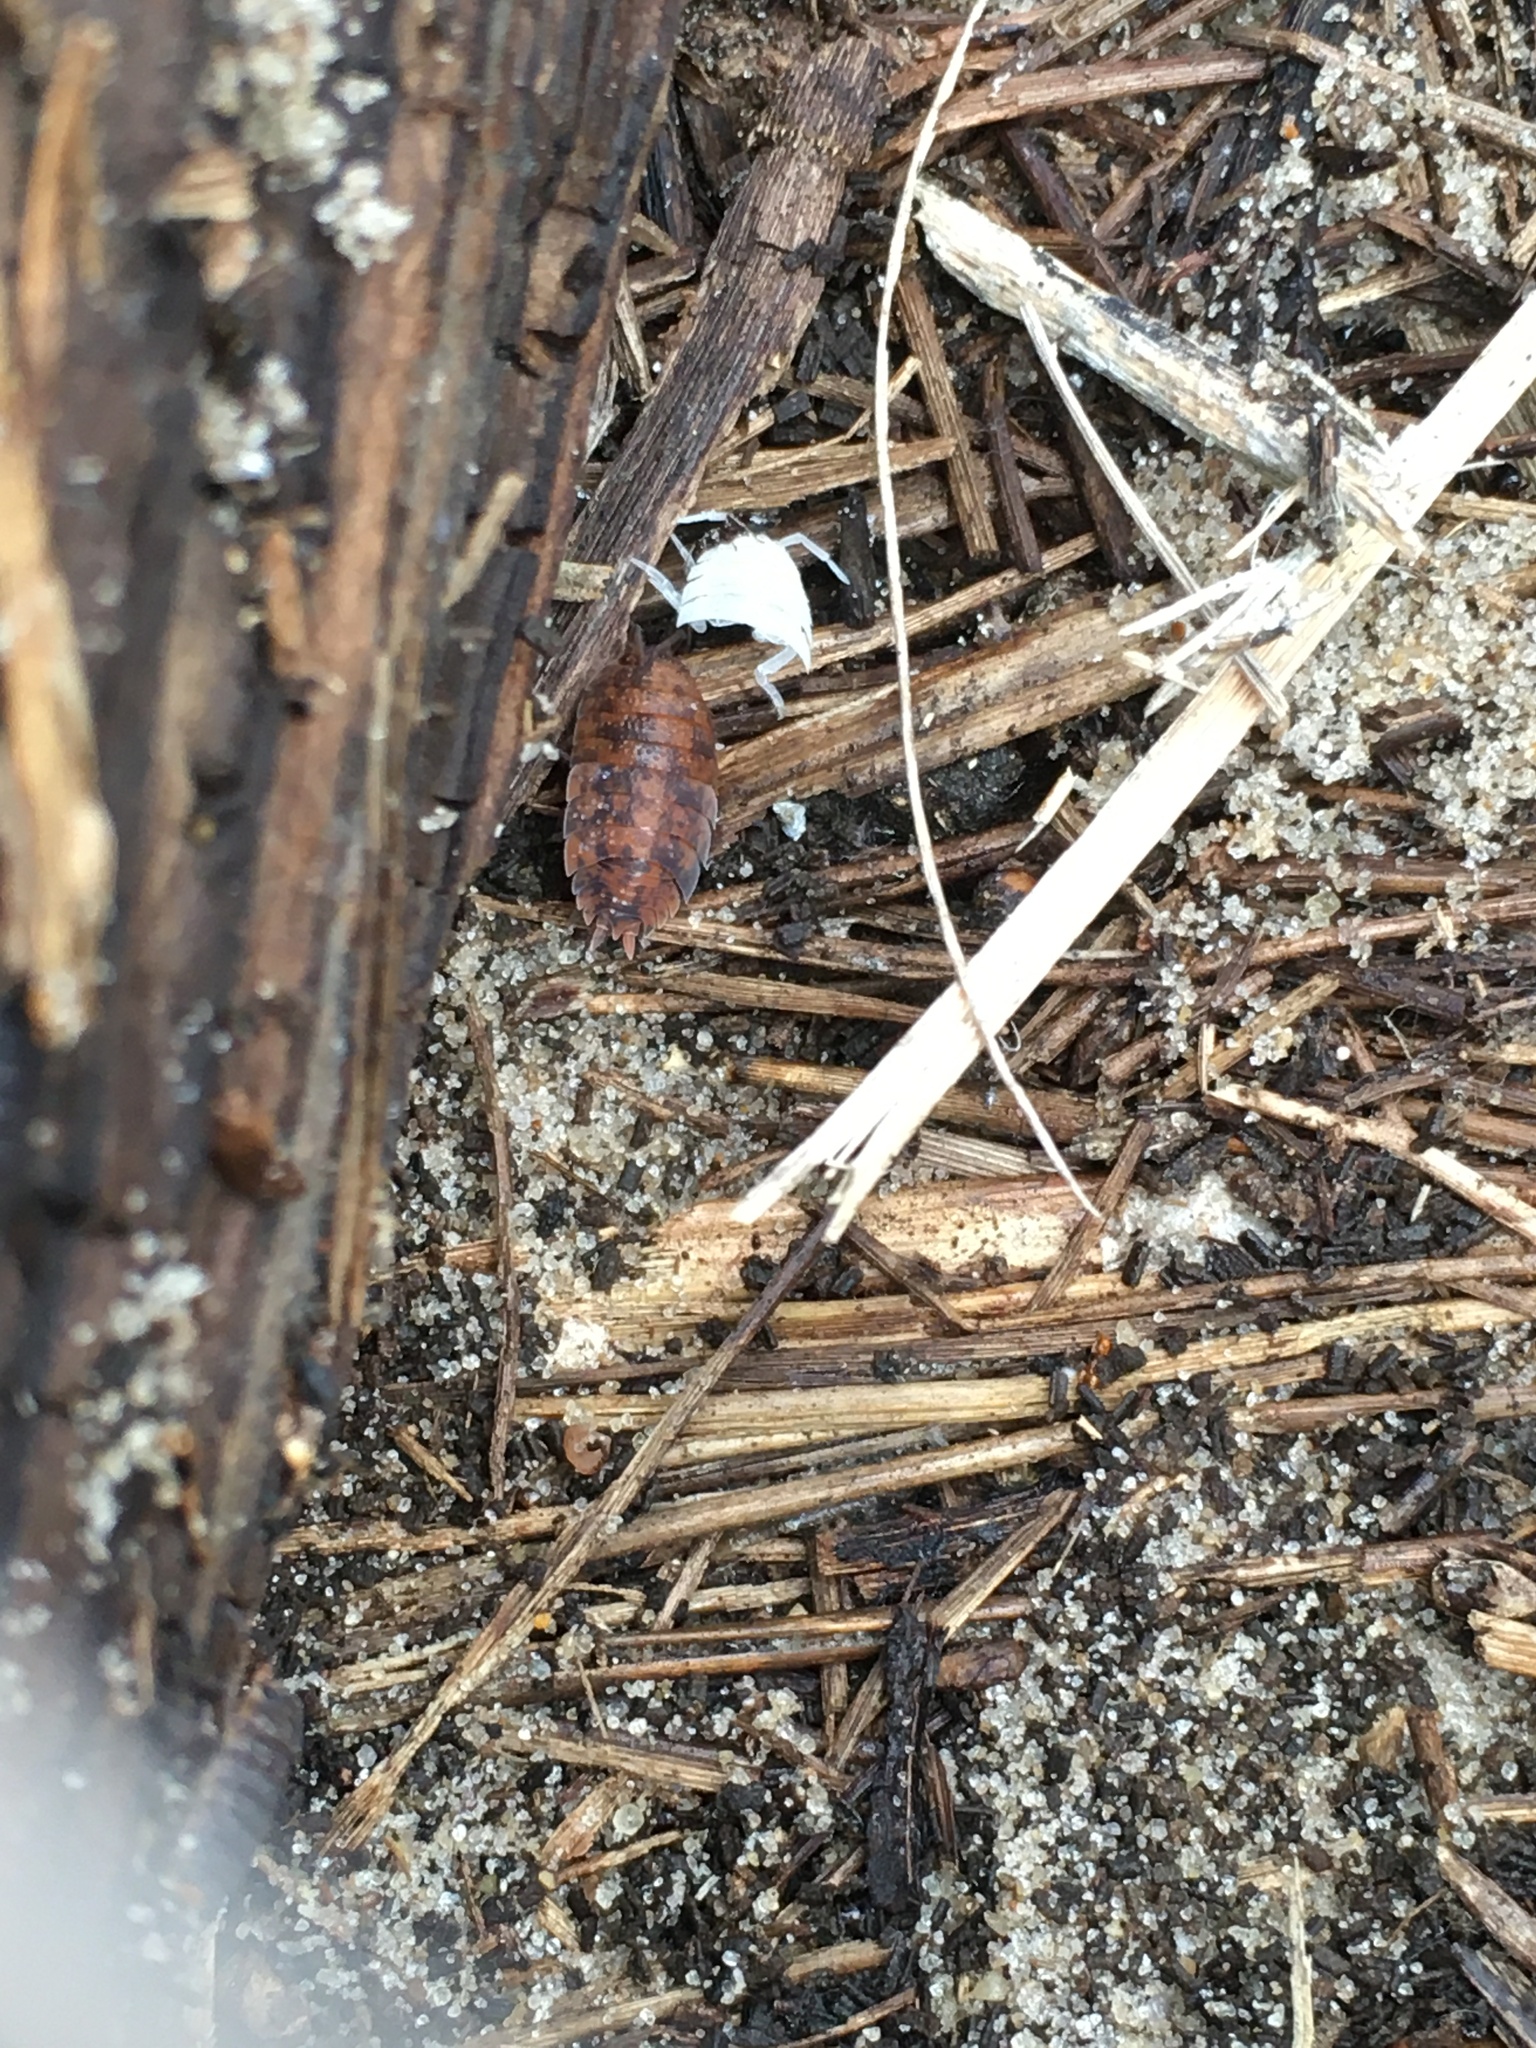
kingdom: Animalia
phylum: Arthropoda
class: Malacostraca
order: Isopoda
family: Porcellionidae
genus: Porcellio
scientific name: Porcellio scaber
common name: Common rough woodlouse
